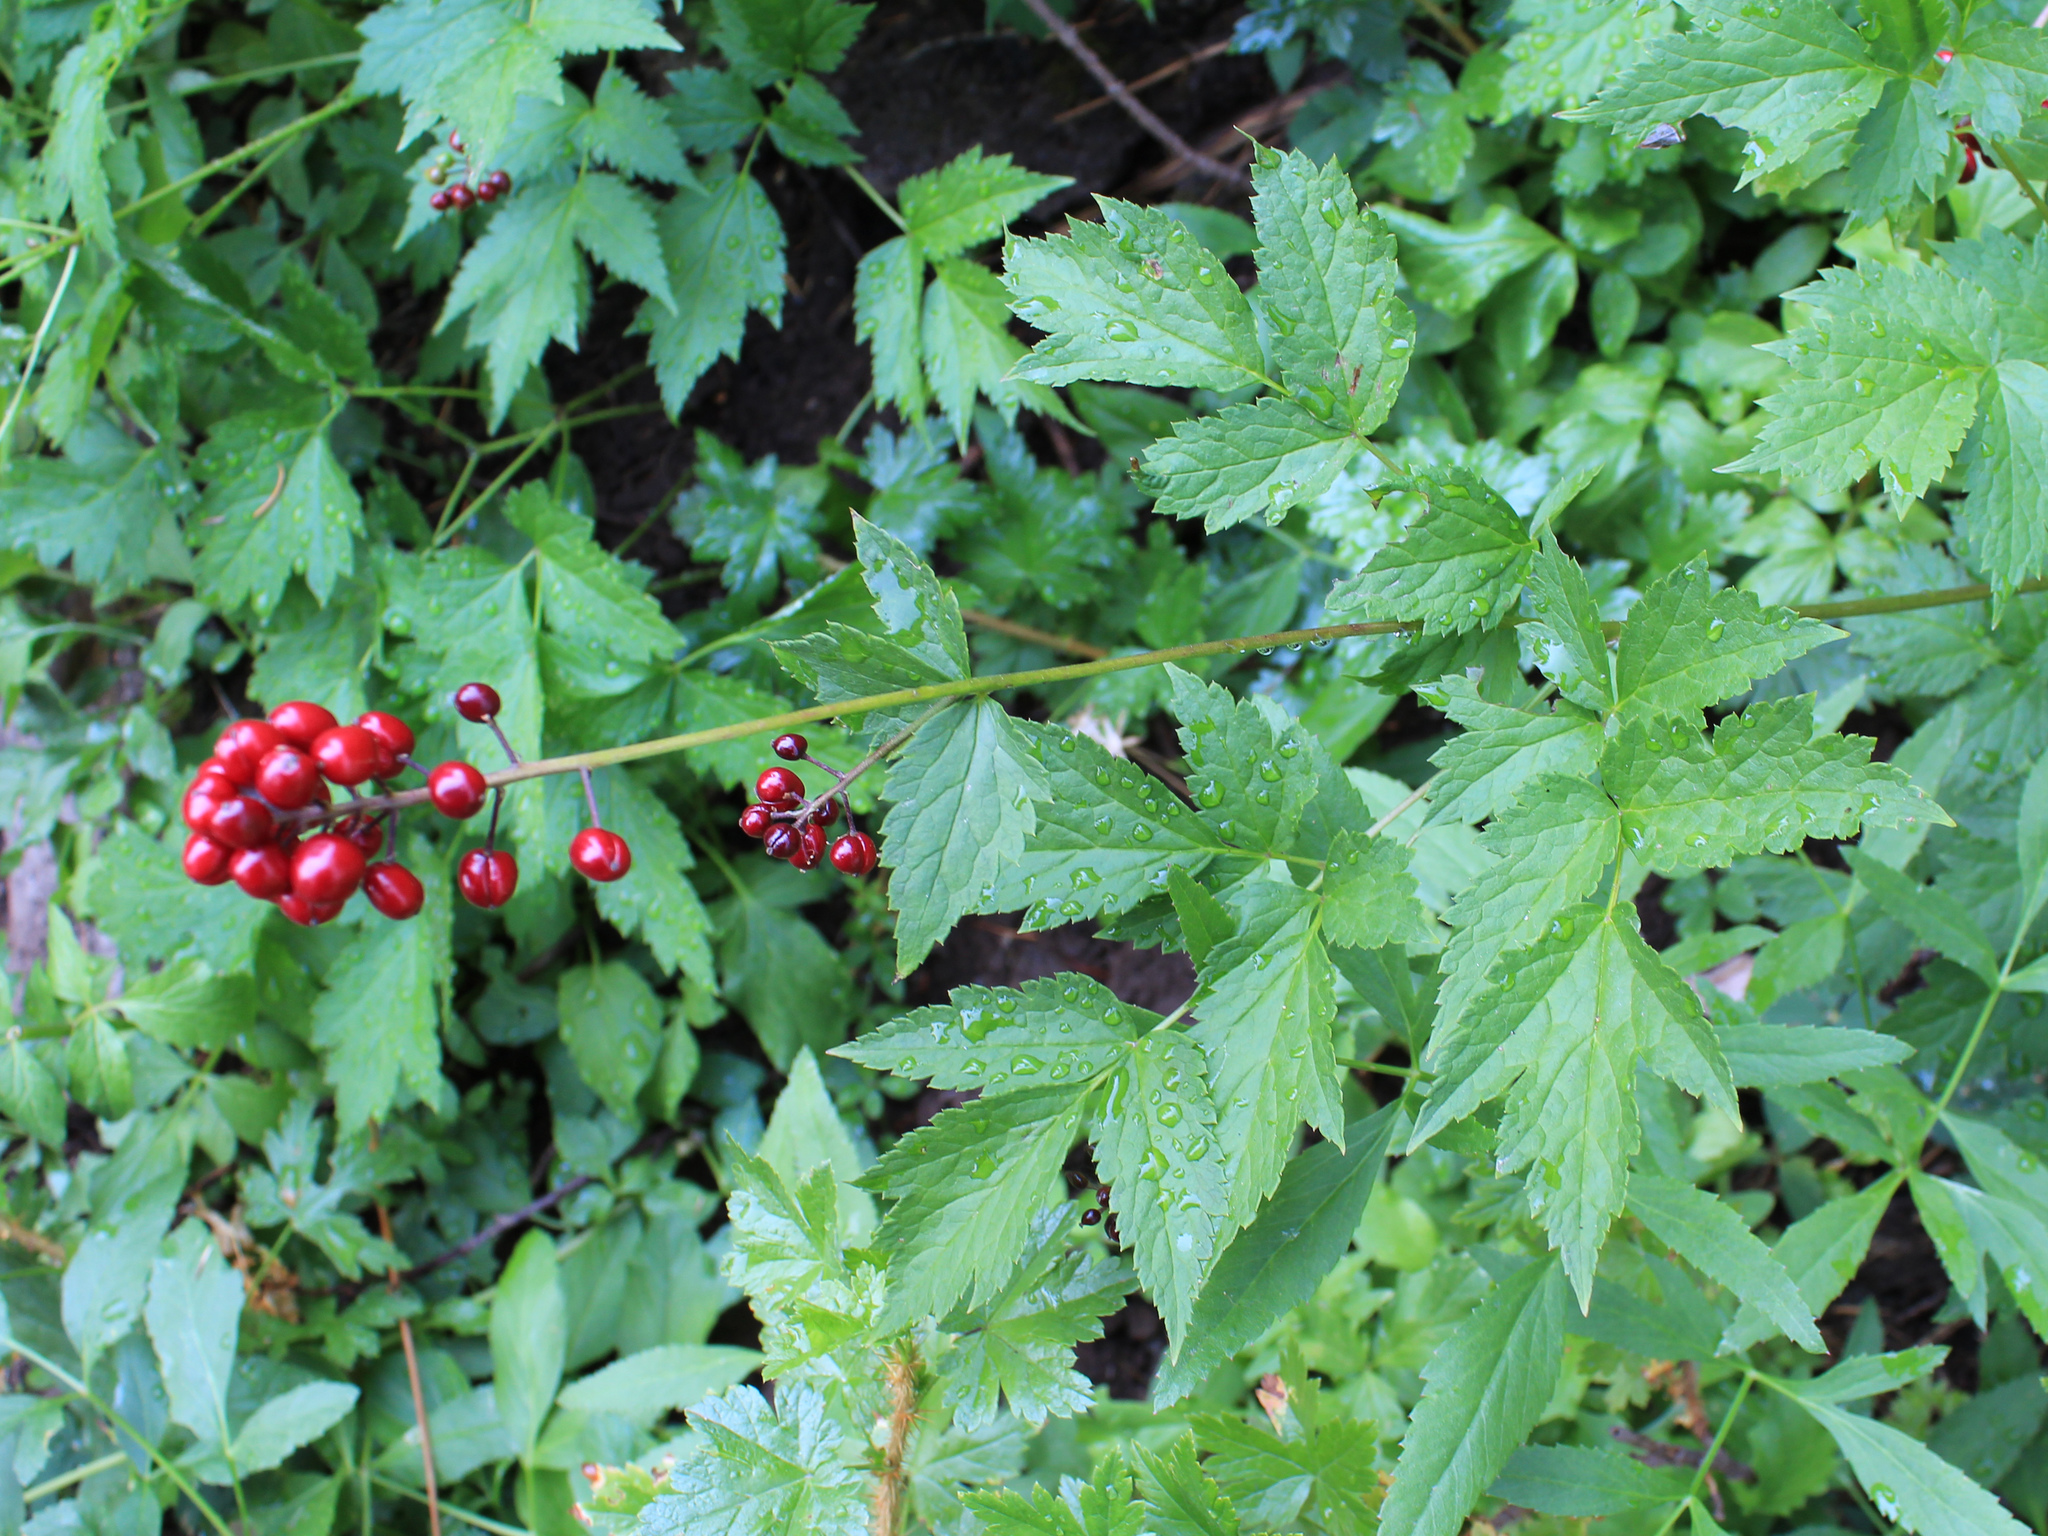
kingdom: Plantae
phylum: Tracheophyta
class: Magnoliopsida
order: Ranunculales
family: Ranunculaceae
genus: Actaea
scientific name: Actaea rubra
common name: Red baneberry
